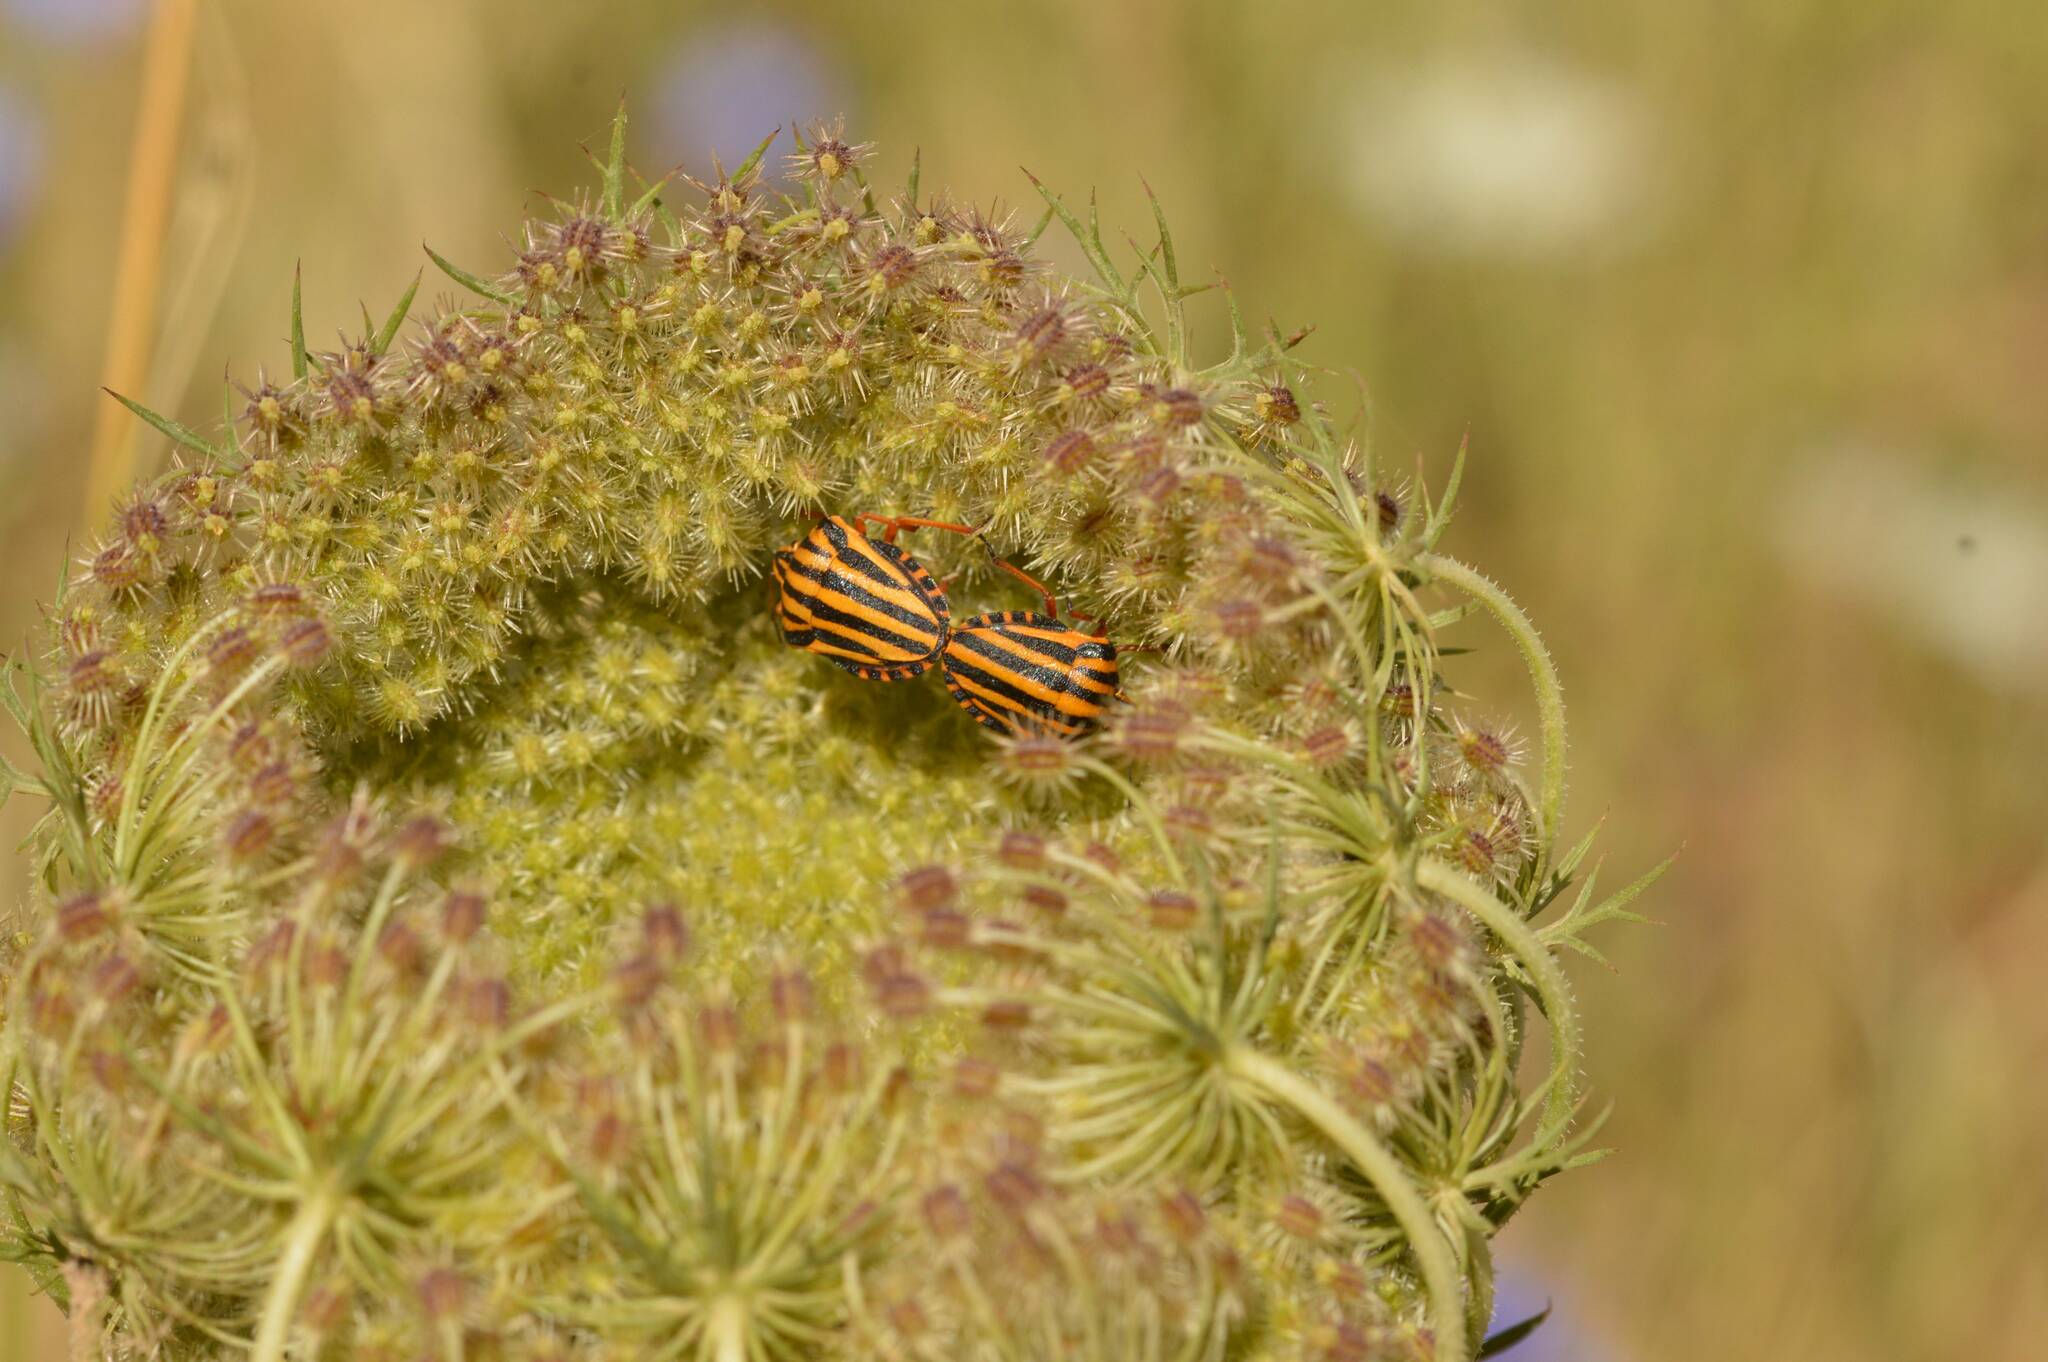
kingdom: Animalia
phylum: Arthropoda
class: Insecta
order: Hemiptera
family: Pentatomidae
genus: Graphosoma
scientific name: Graphosoma lineatum
